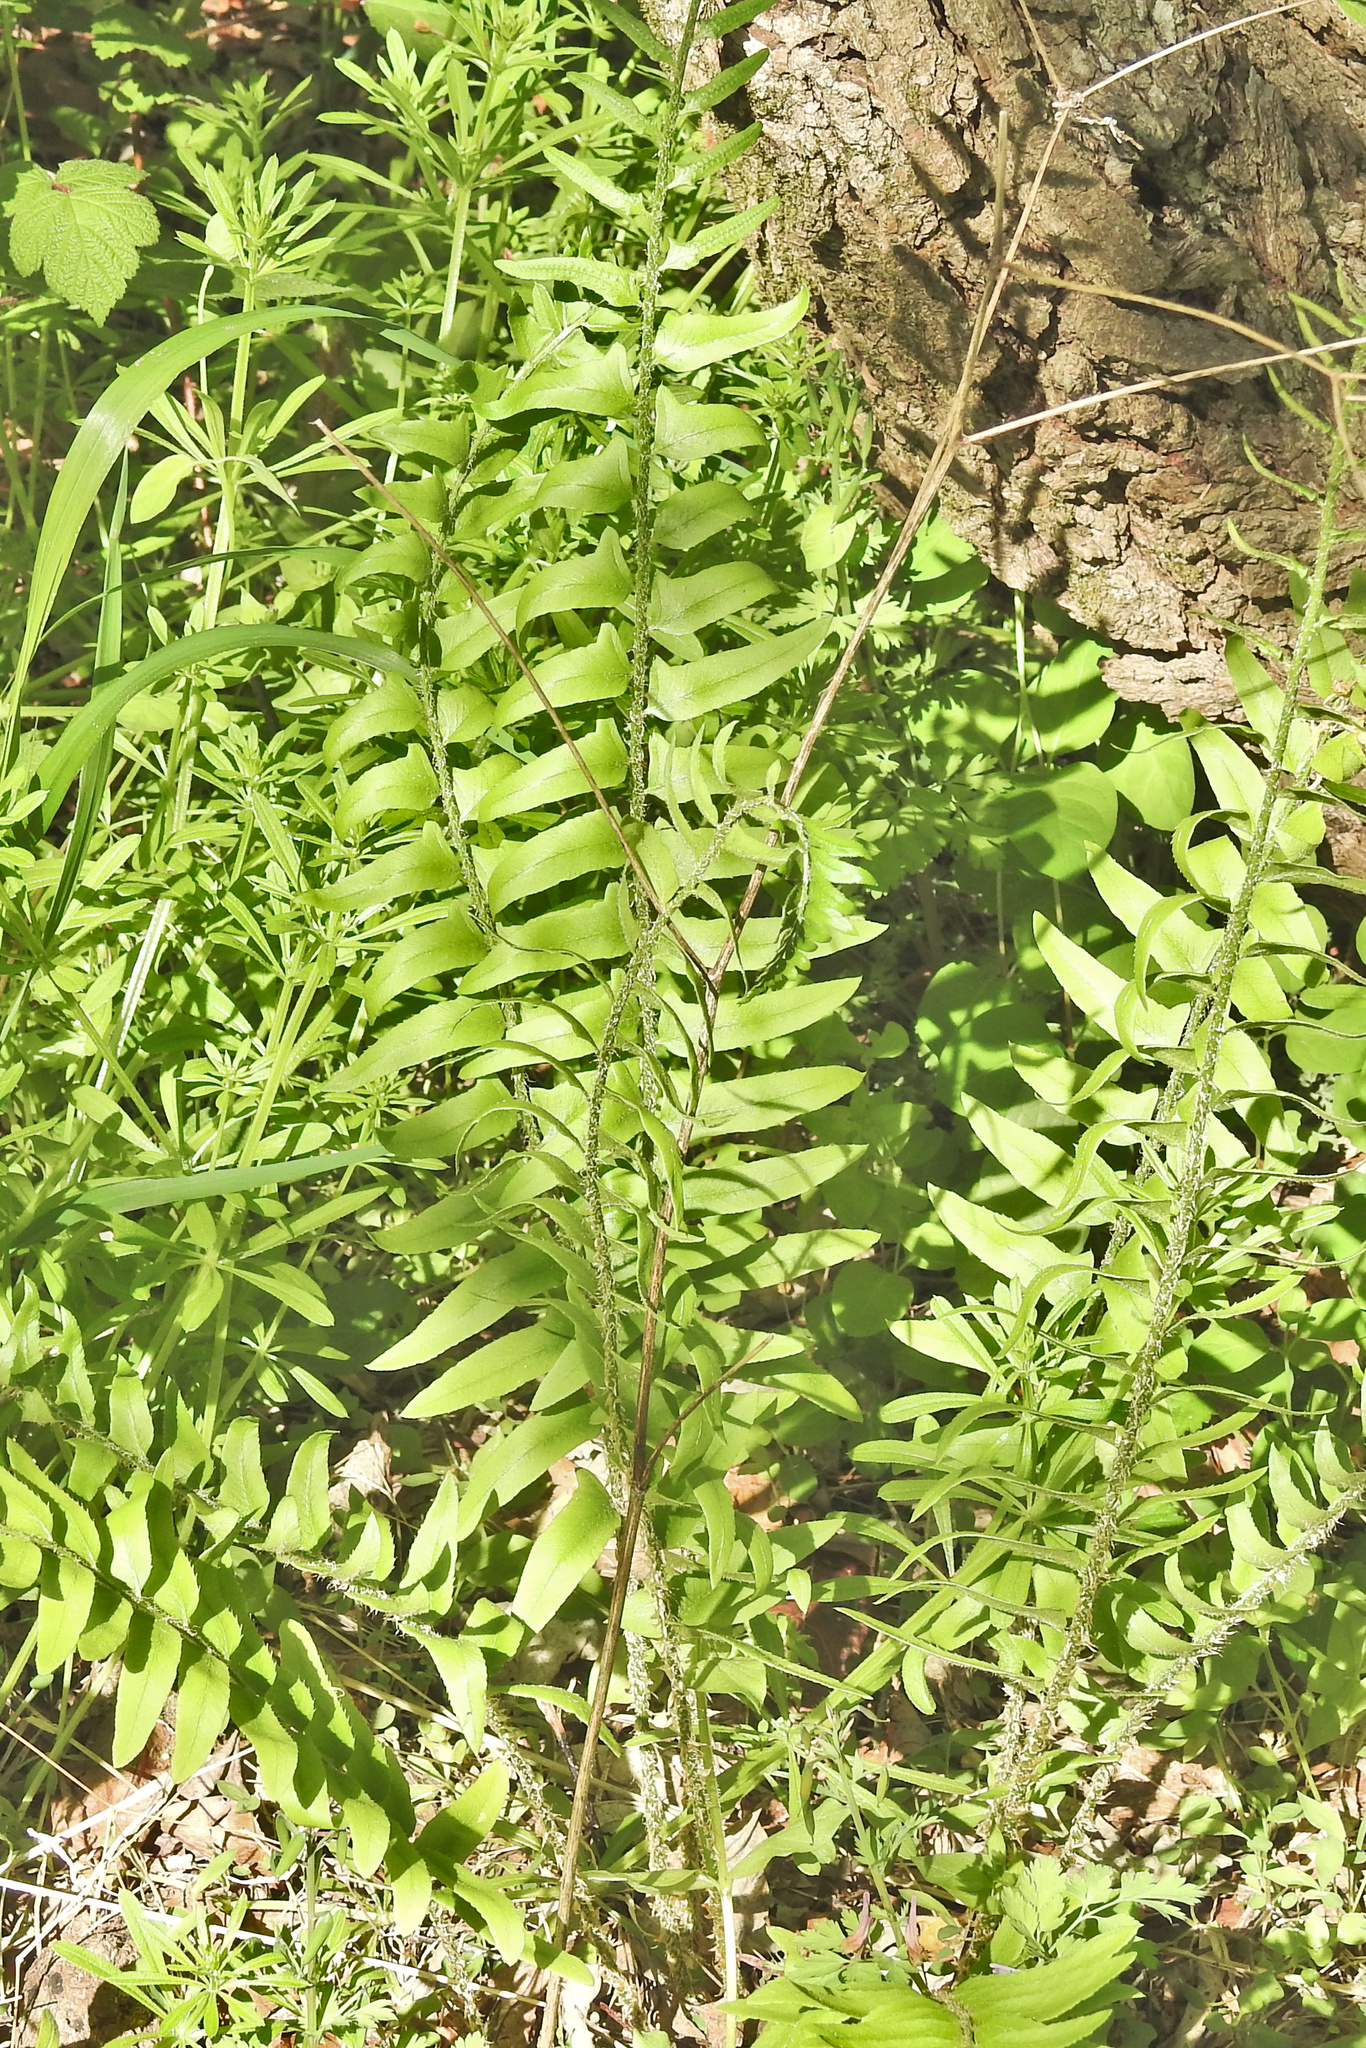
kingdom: Plantae
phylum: Tracheophyta
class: Polypodiopsida
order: Polypodiales
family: Dryopteridaceae
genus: Polystichum
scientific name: Polystichum acrostichoides
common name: Christmas fern
